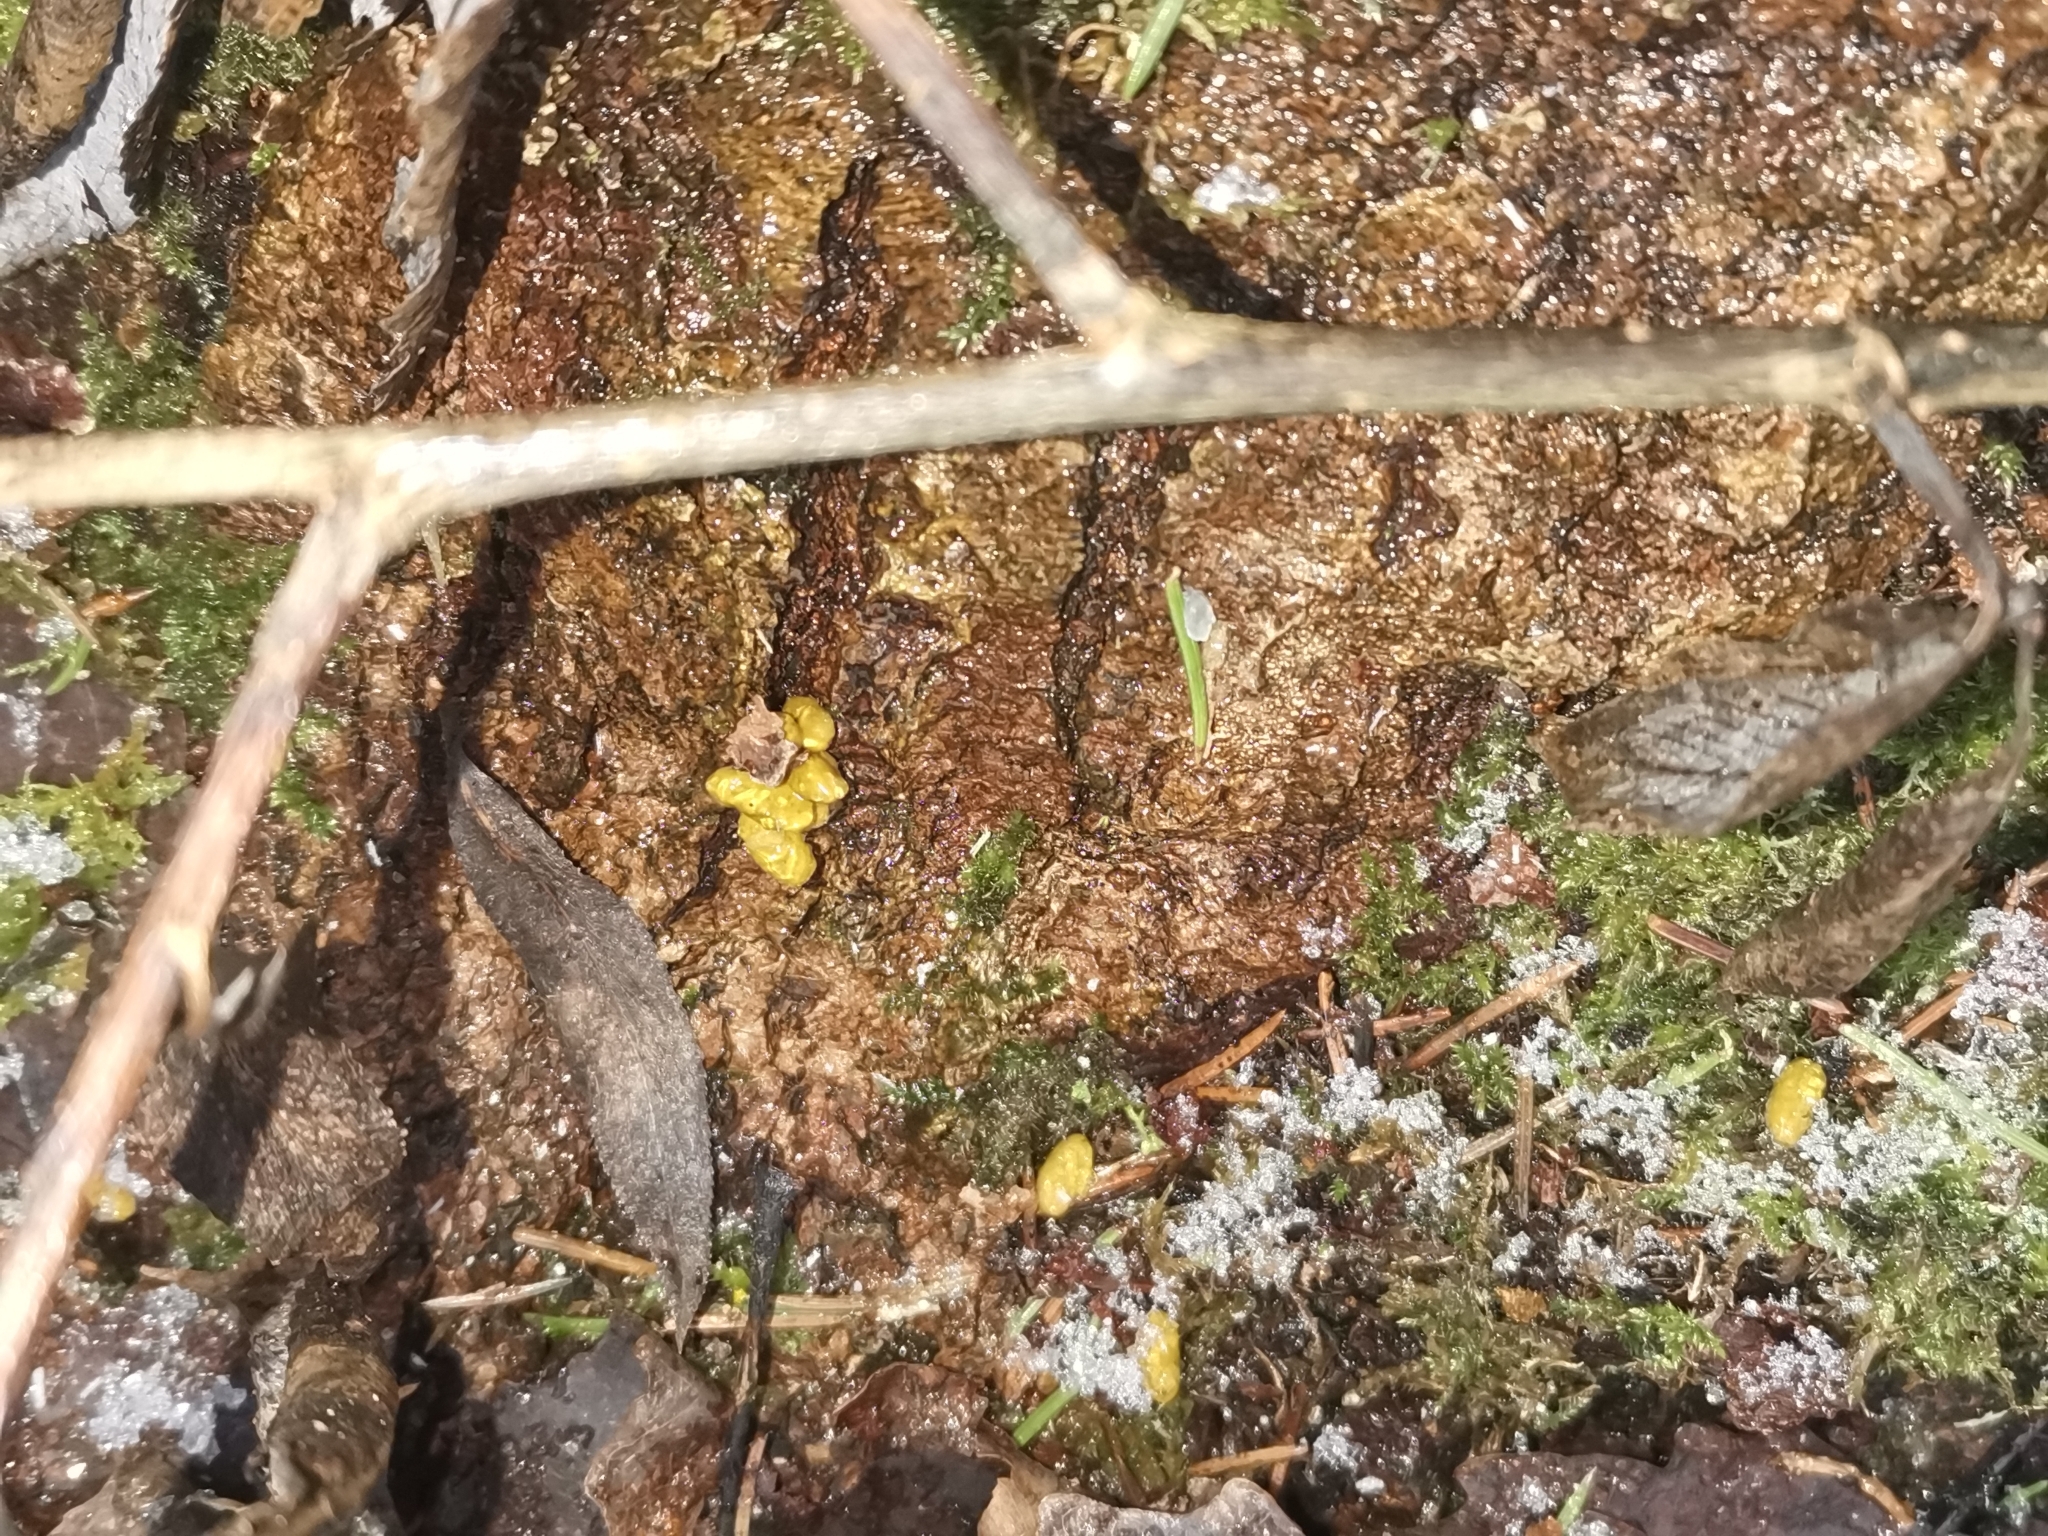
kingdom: Animalia
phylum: Chordata
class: Mammalia
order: Rodentia
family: Sciuridae
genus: Pteromys
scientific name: Pteromys volans
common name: Siberian flying squirrel
